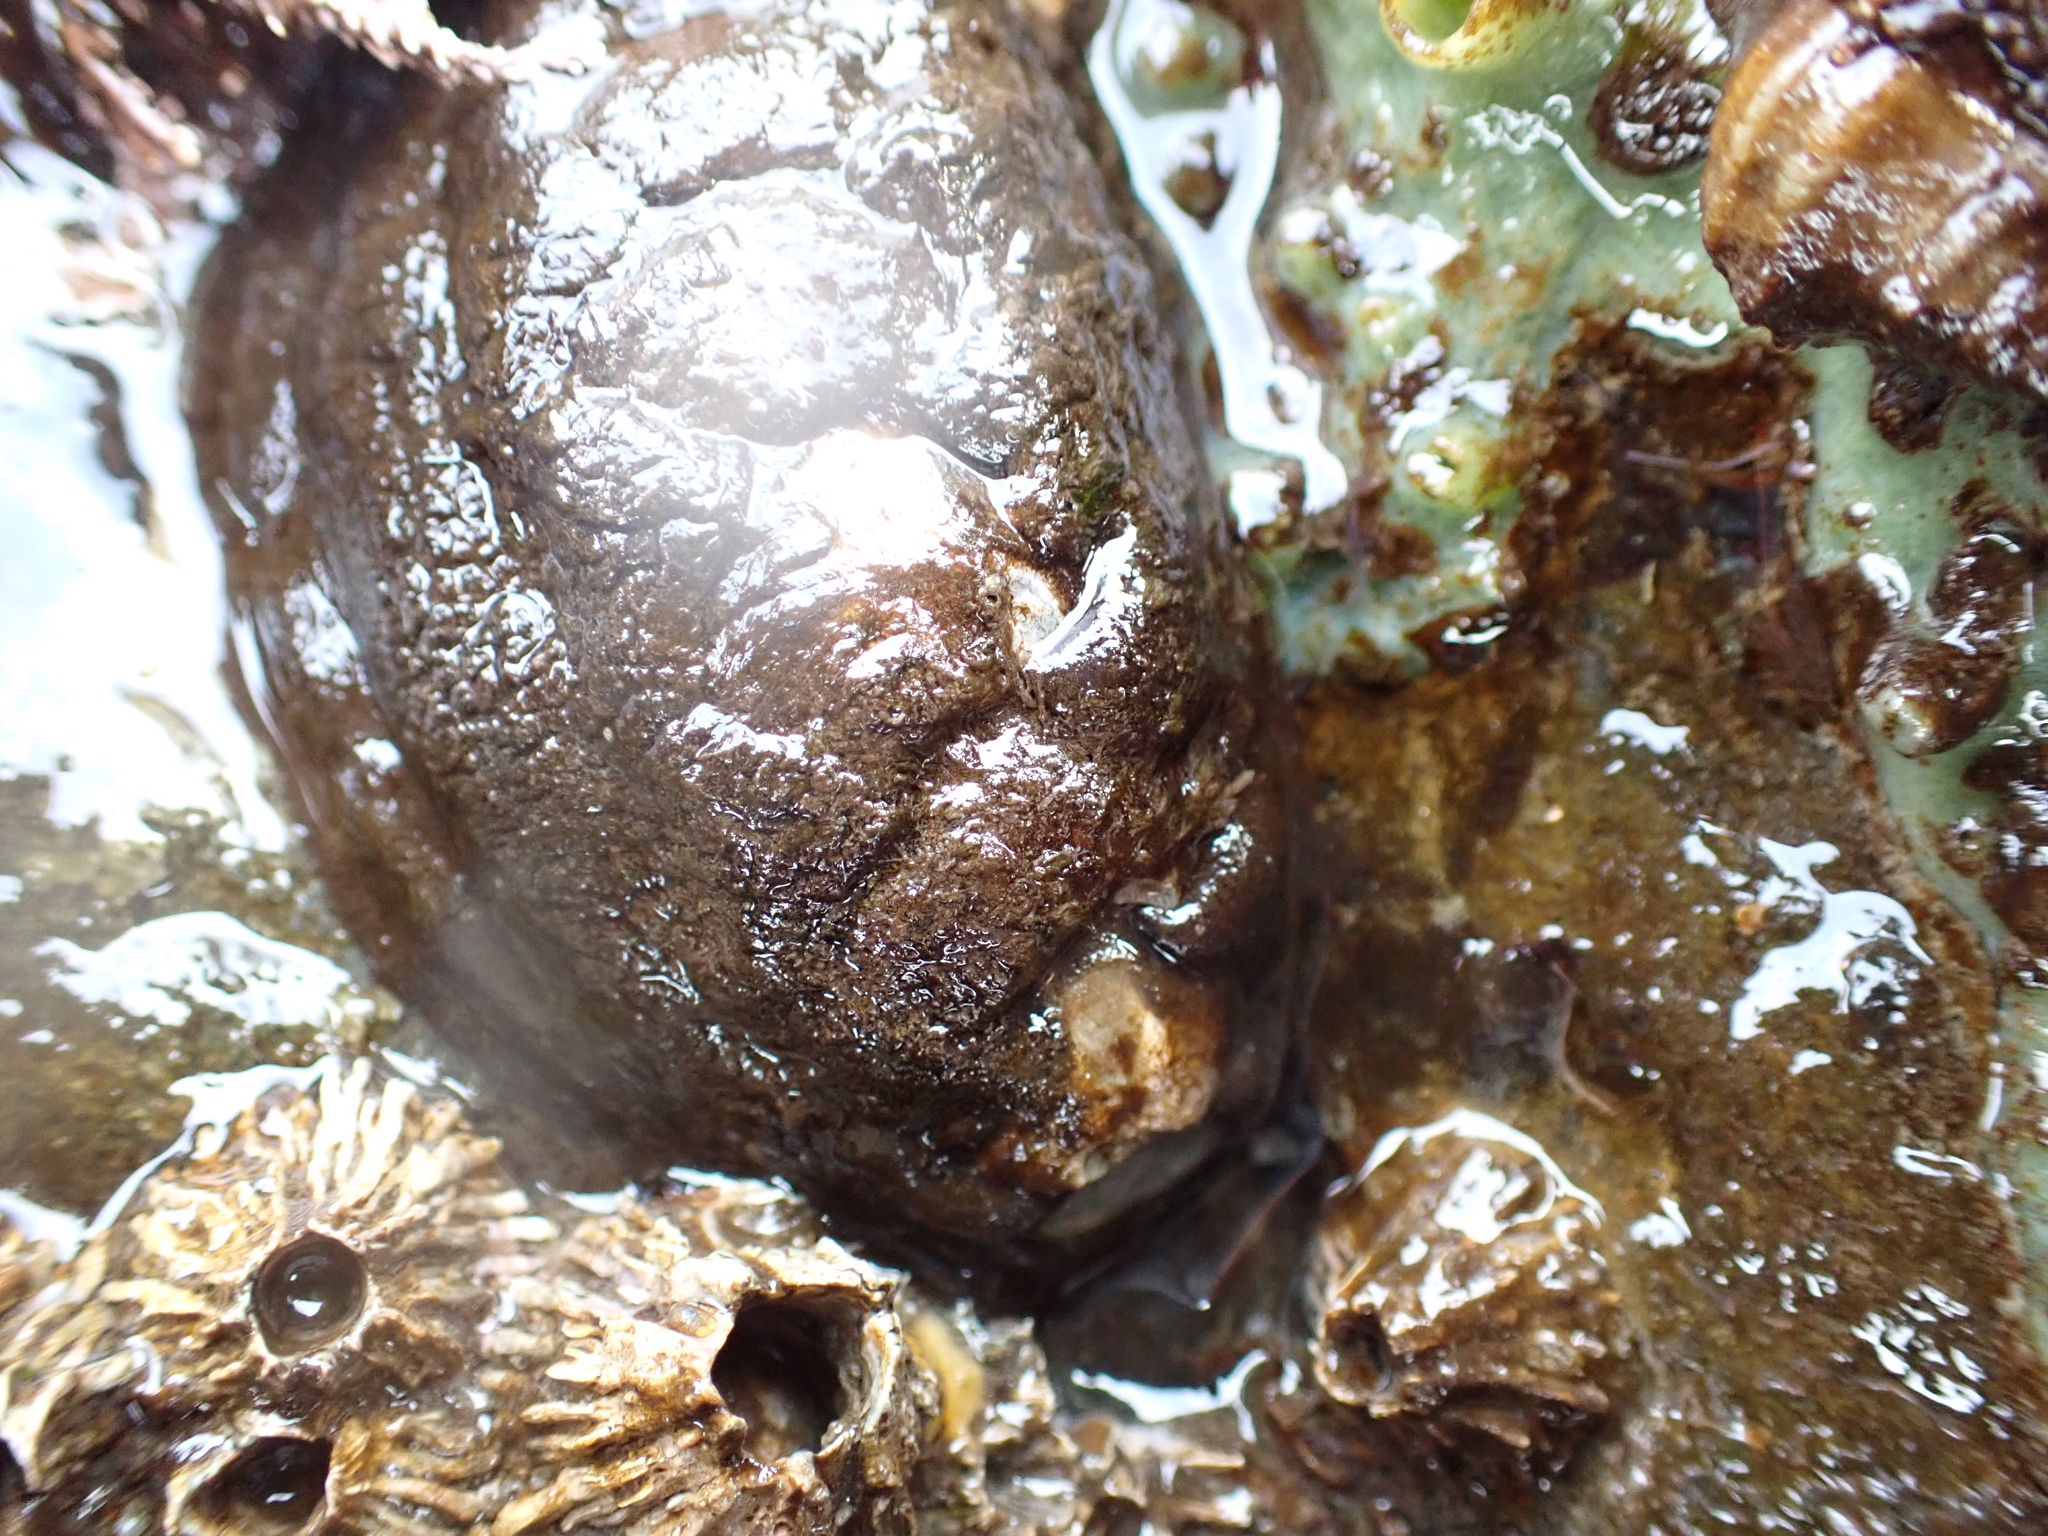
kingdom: Animalia
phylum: Mollusca
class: Polyplacophora
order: Chitonida
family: Mopaliidae
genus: Katharina
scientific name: Katharina tunicata
